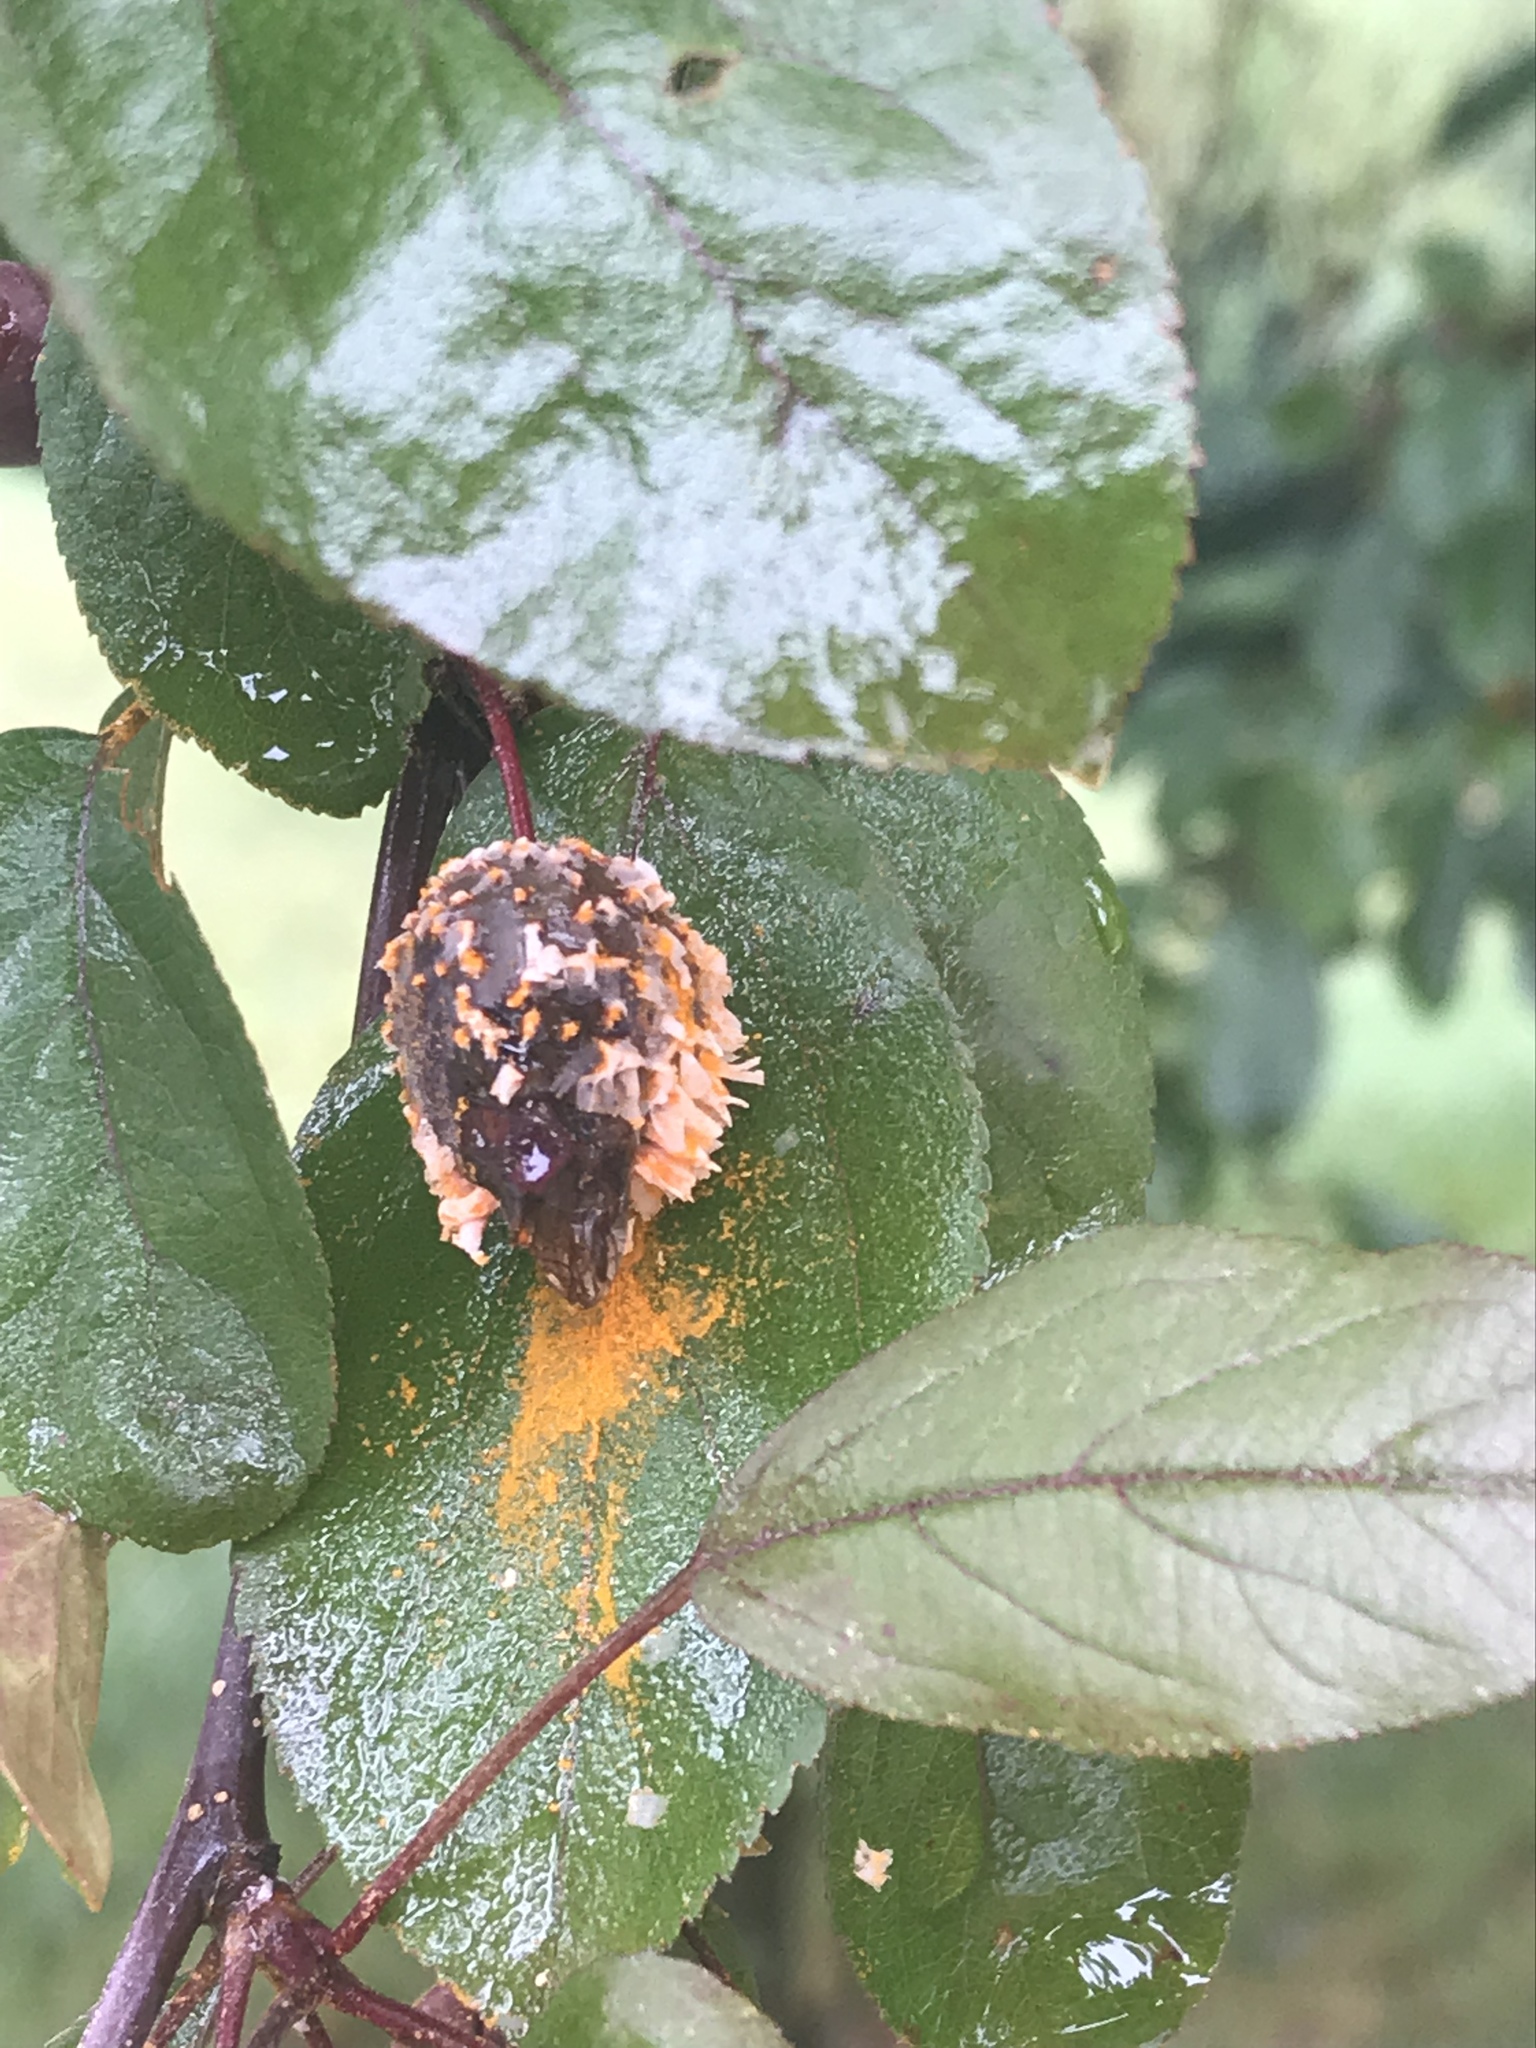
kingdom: Fungi
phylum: Basidiomycota
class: Pucciniomycetes
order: Pucciniales
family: Gymnosporangiaceae
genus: Gymnosporangium
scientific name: Gymnosporangium clavipes
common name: Quince rust
